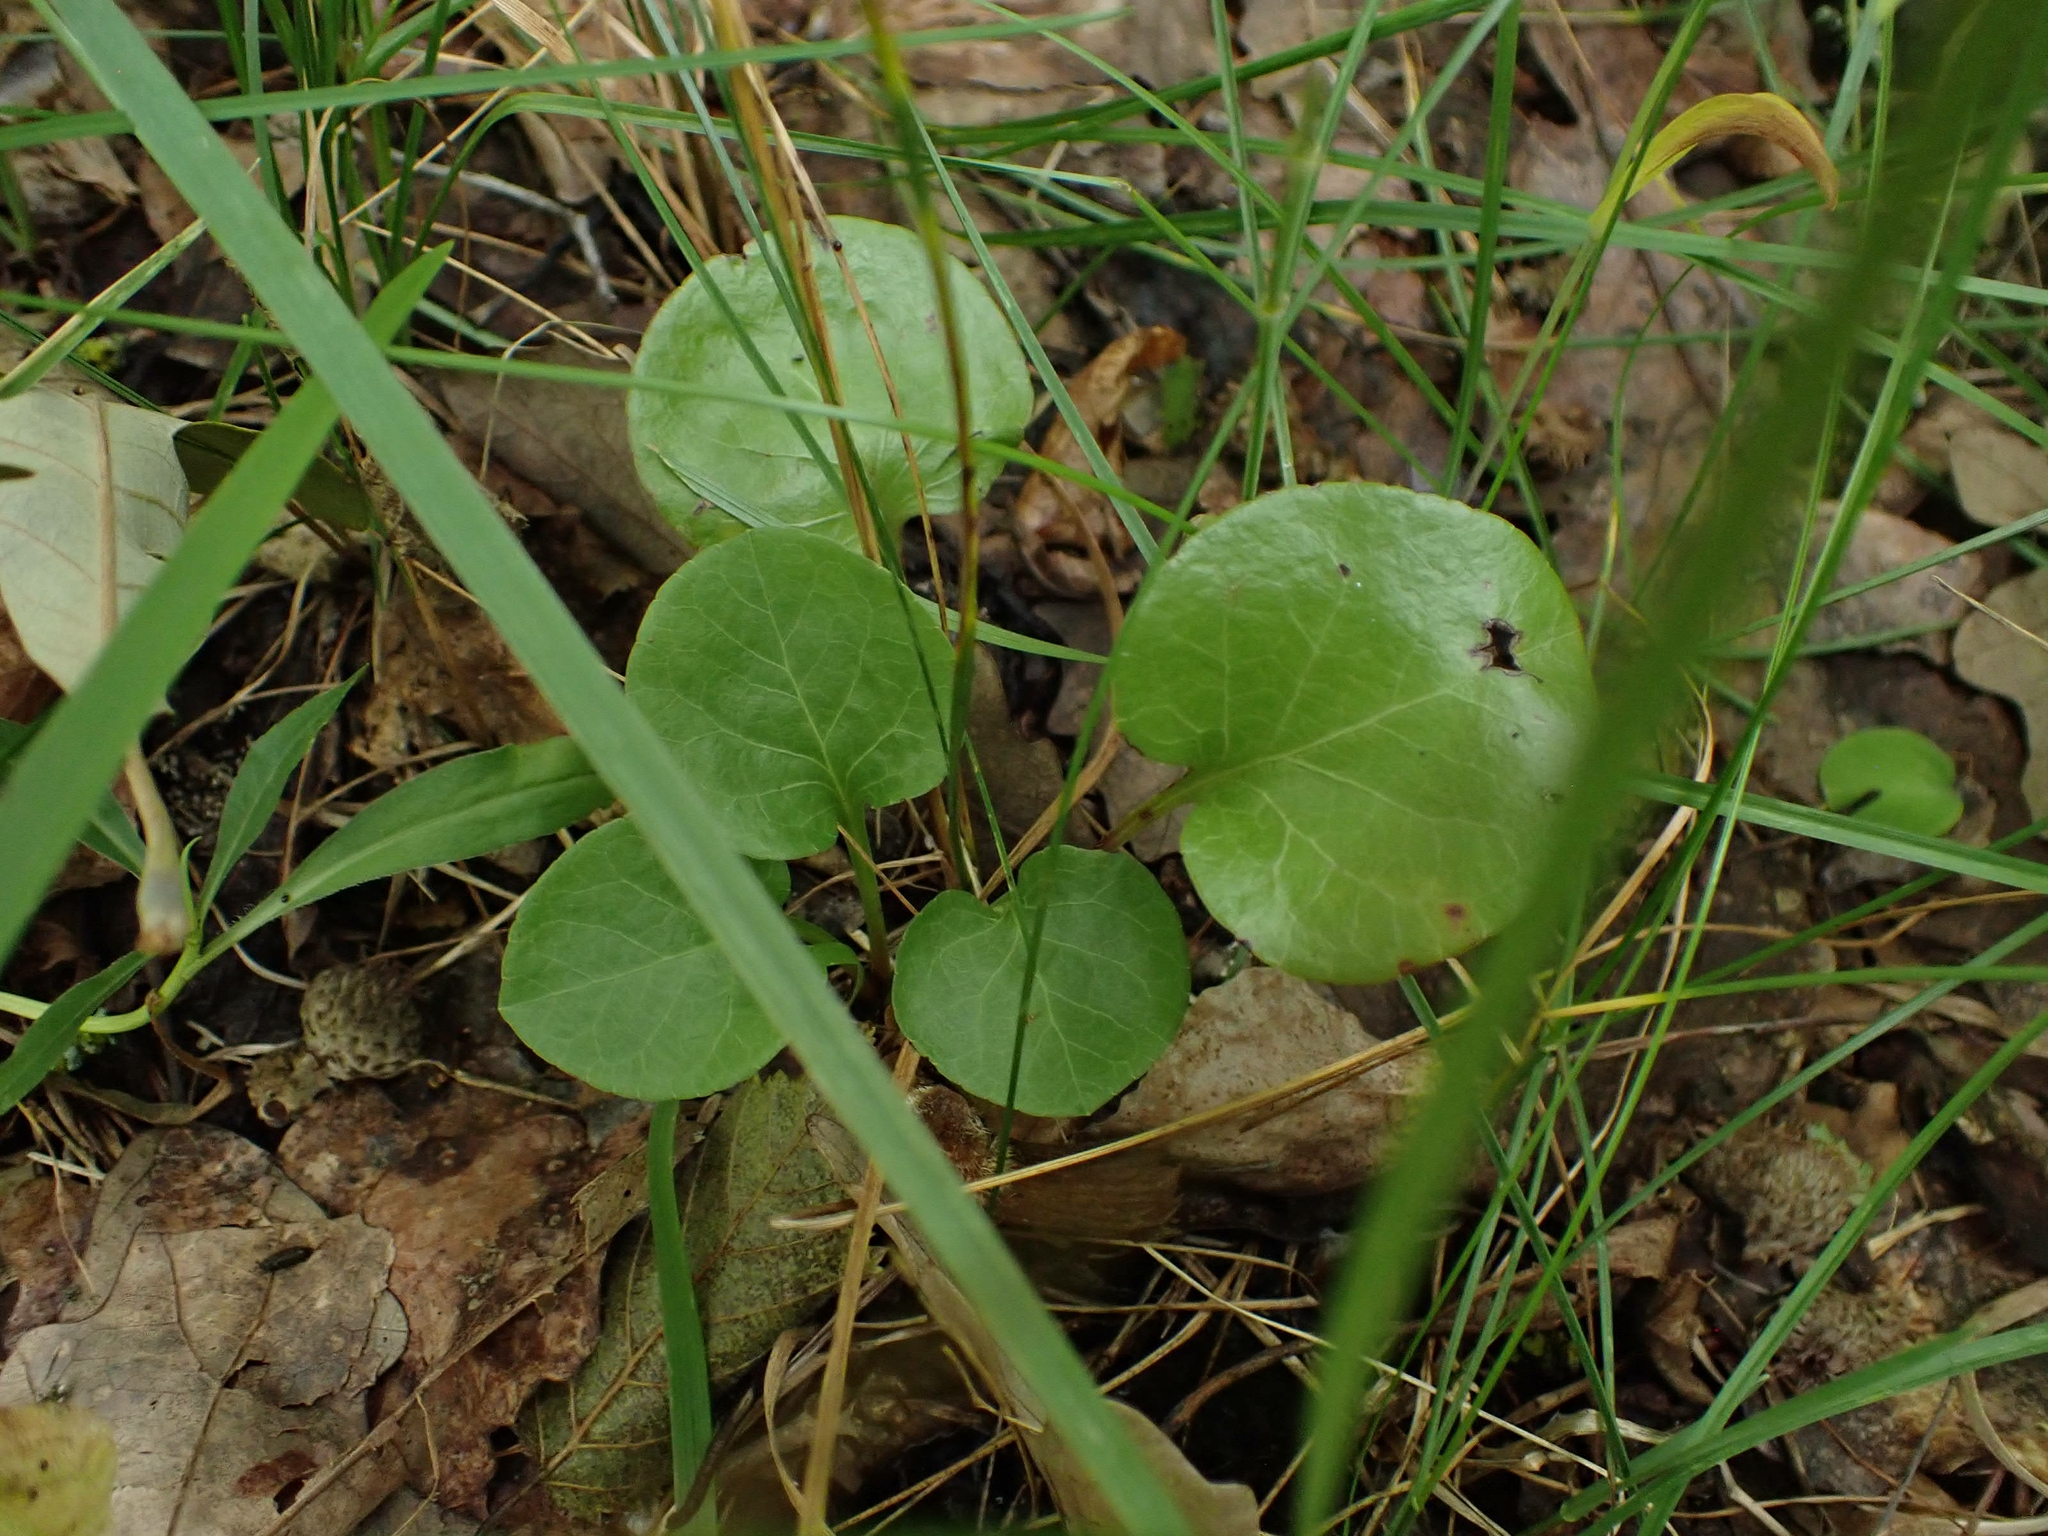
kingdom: Plantae
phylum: Tracheophyta
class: Magnoliopsida
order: Ericales
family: Ericaceae
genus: Pyrola
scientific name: Pyrola asarifolia
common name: Bog wintergreen
